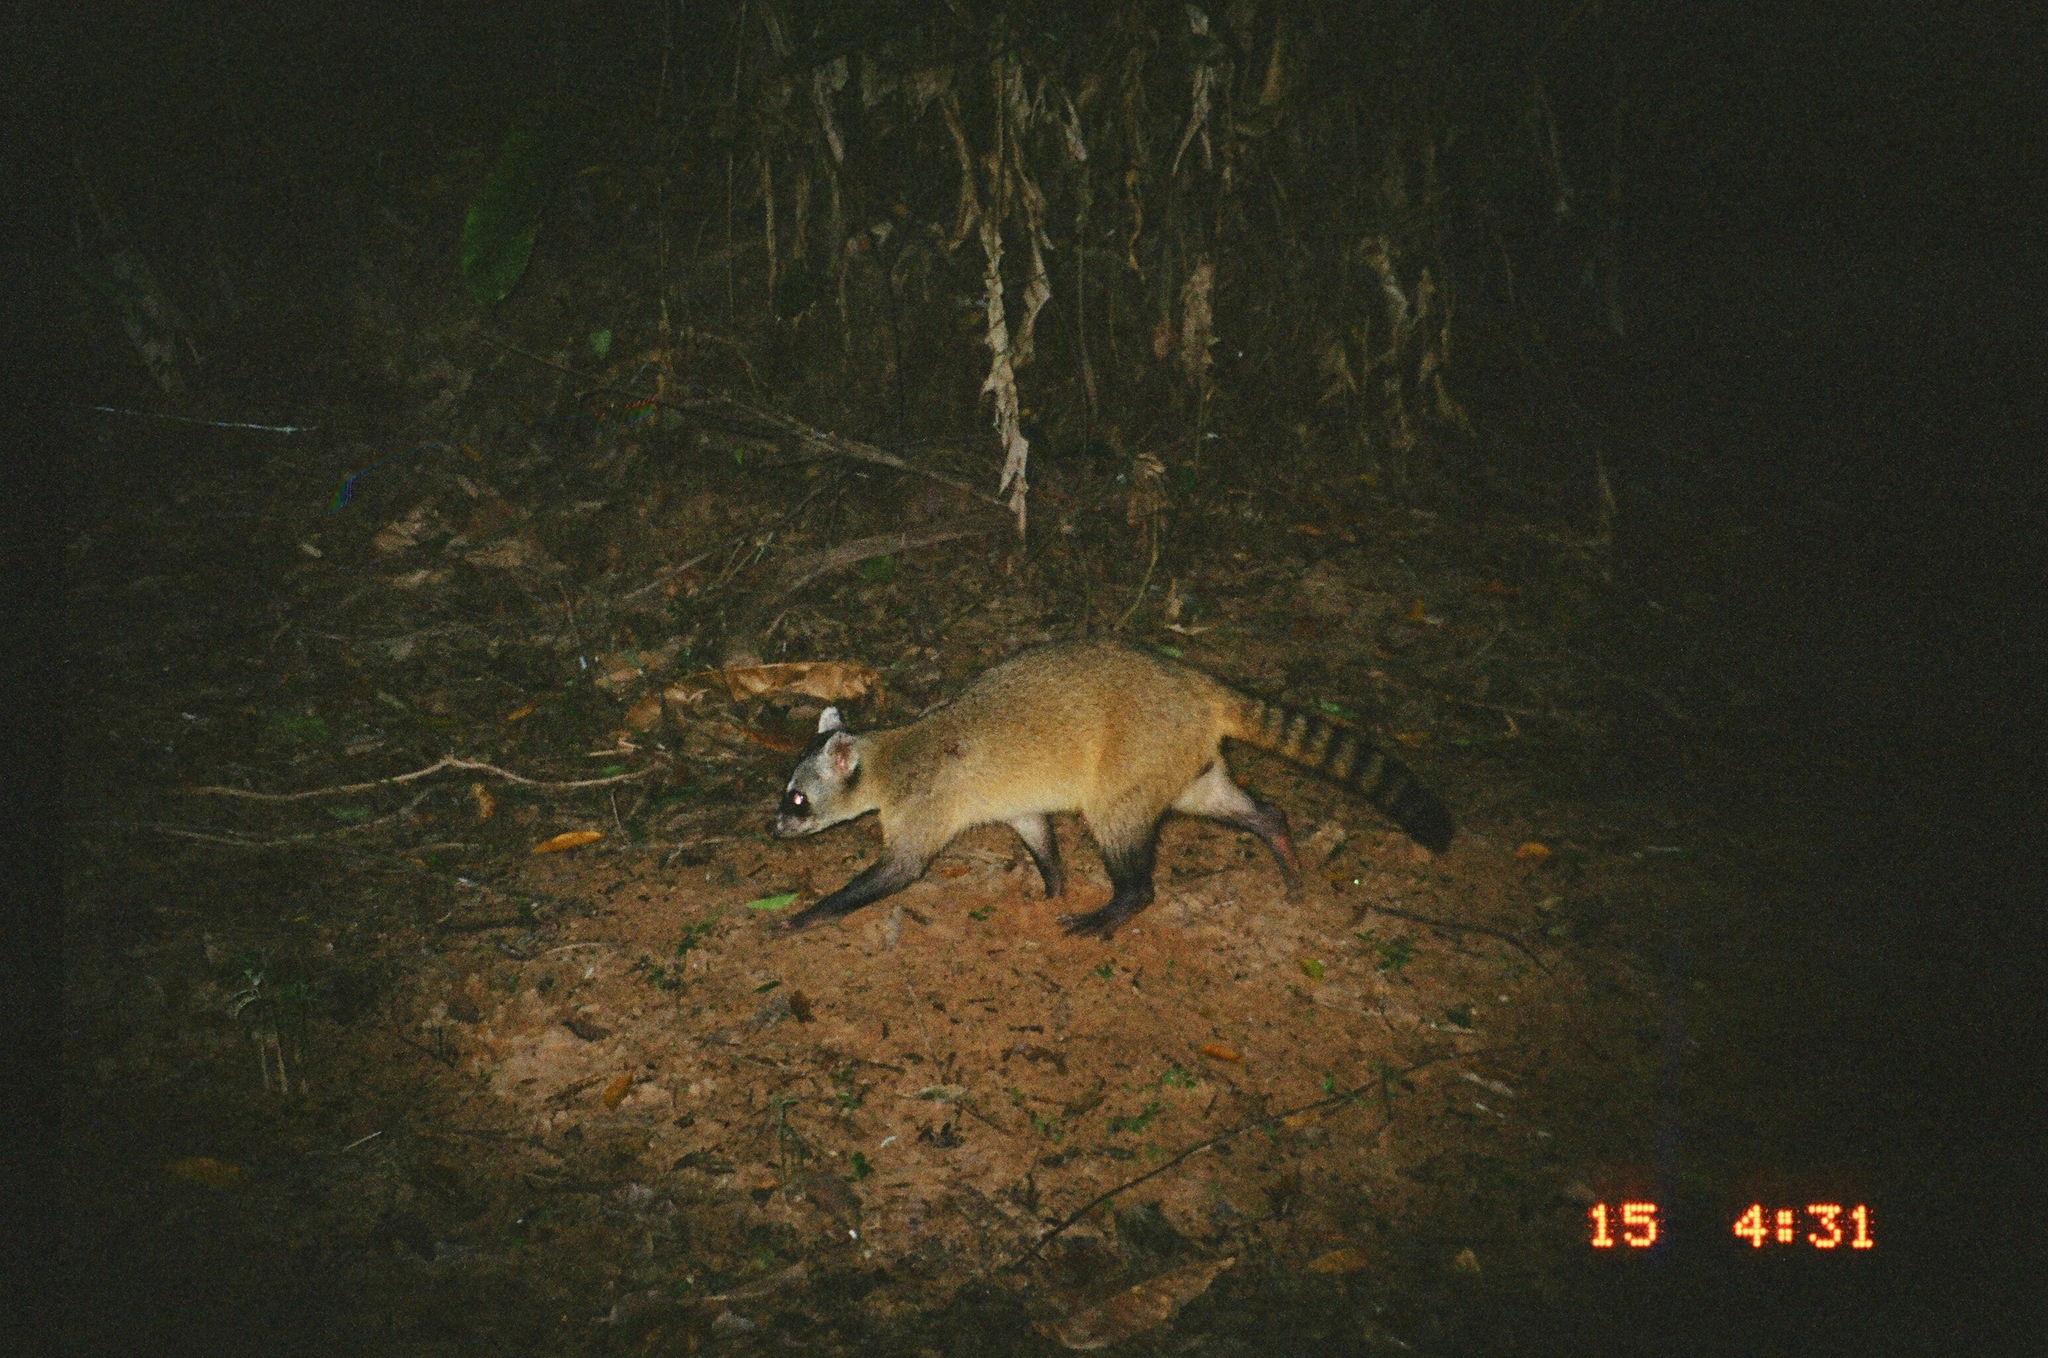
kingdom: Animalia
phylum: Chordata
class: Mammalia
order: Carnivora
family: Procyonidae
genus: Procyon
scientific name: Procyon cancrivorus
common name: Crab-eating raccoon
